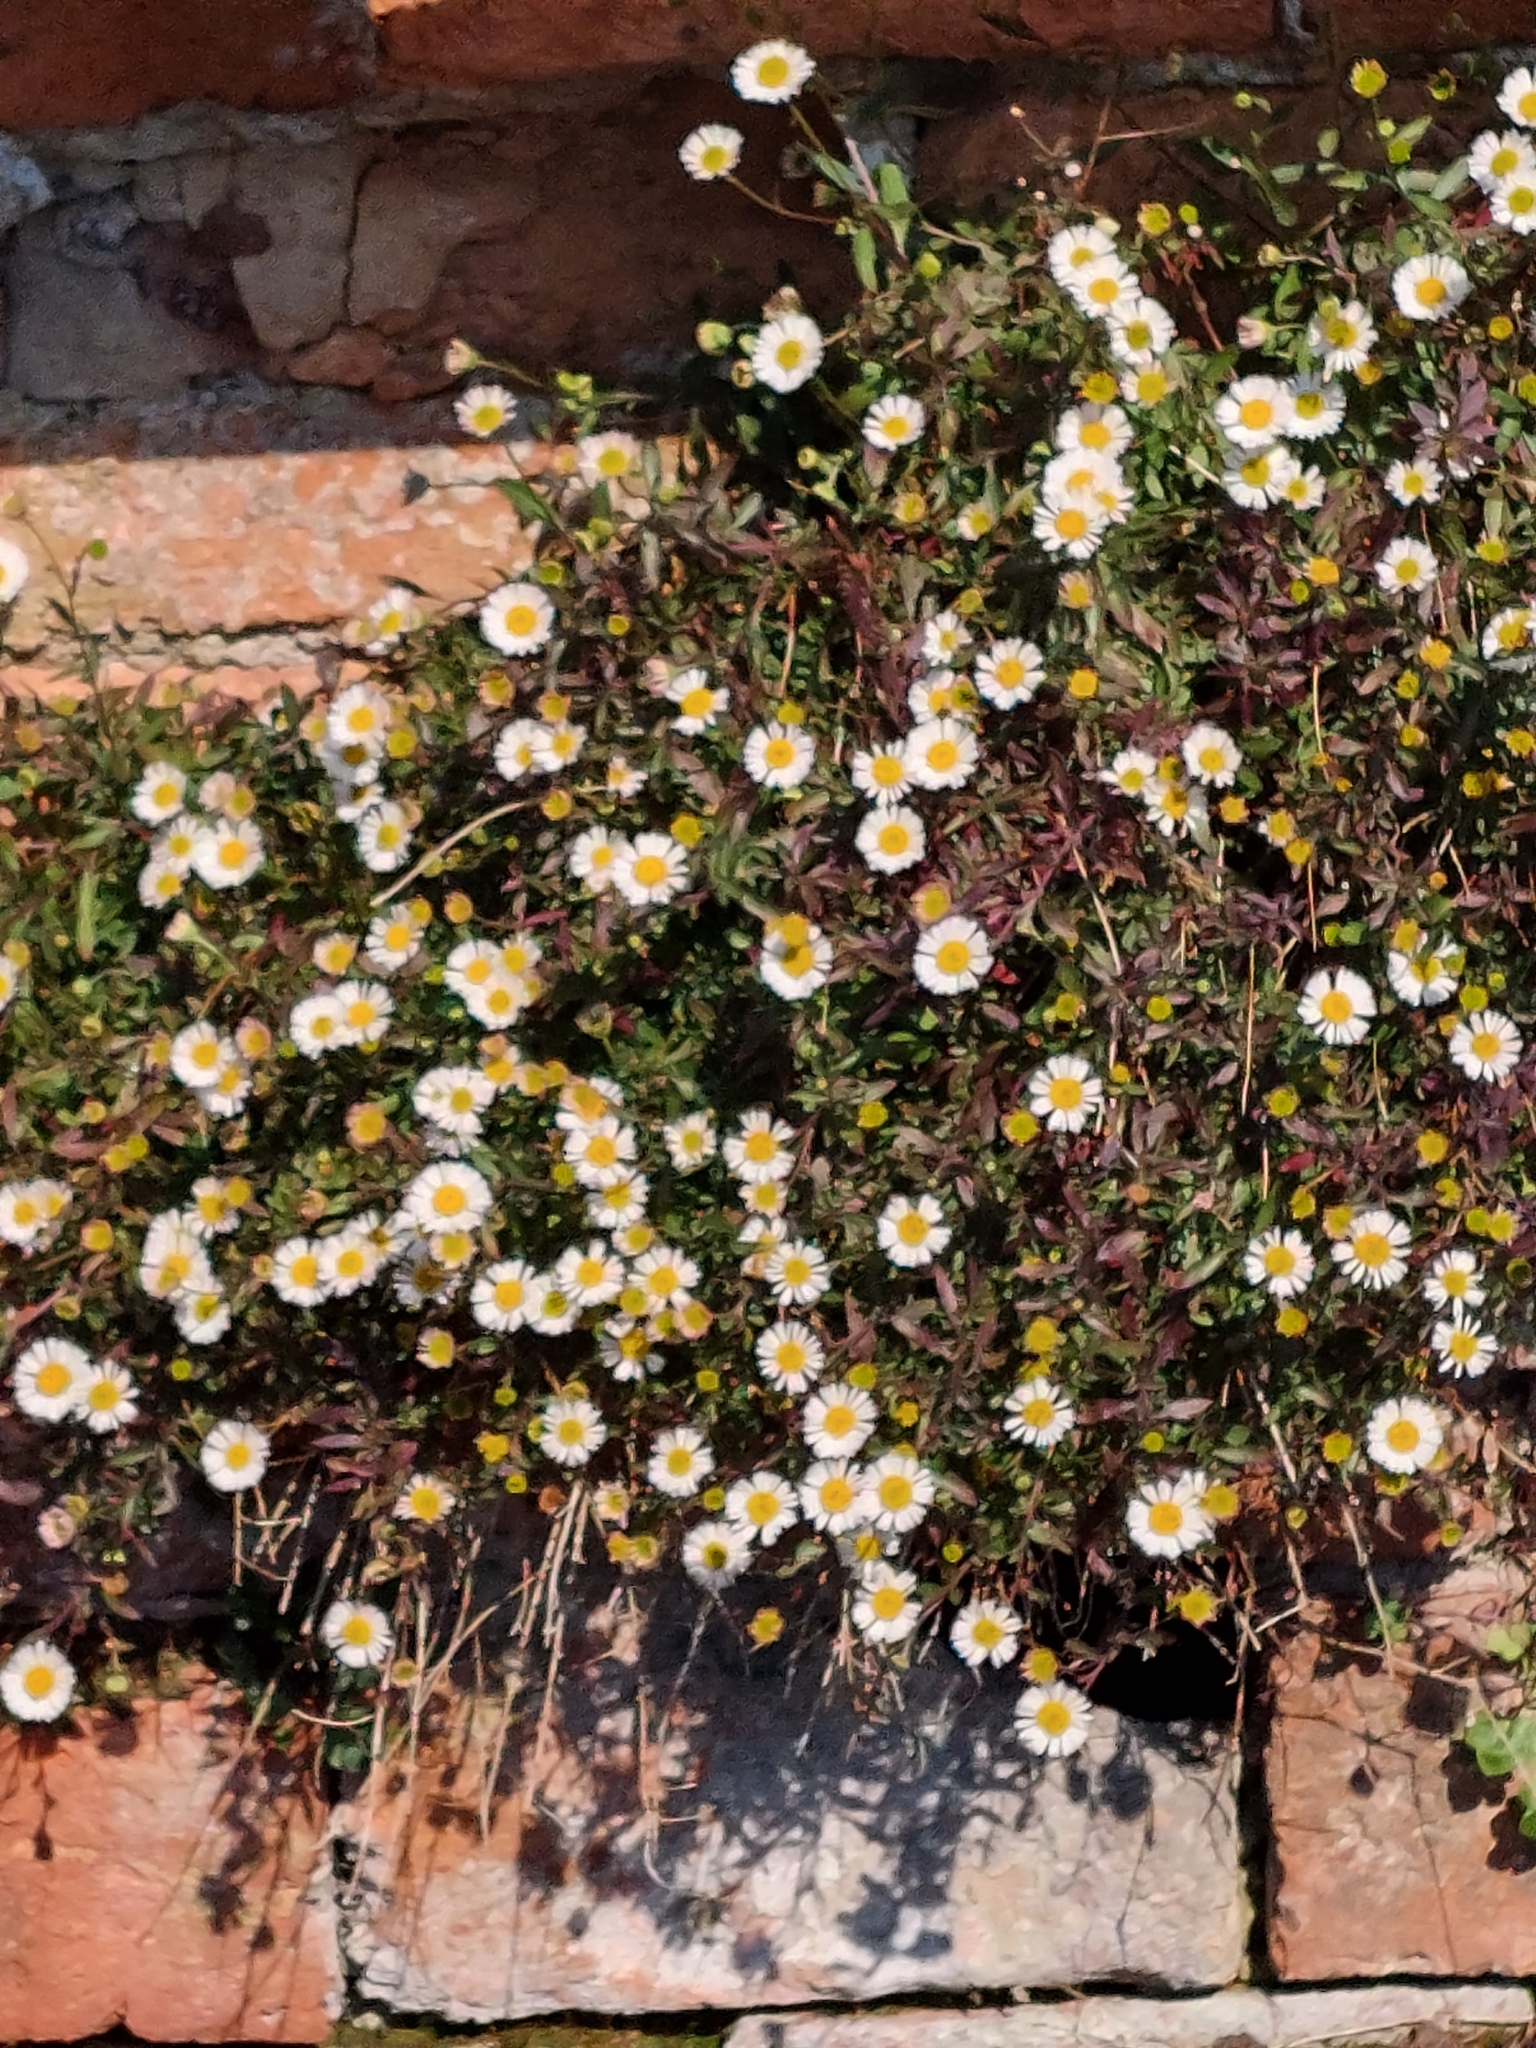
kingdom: Plantae
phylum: Tracheophyta
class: Magnoliopsida
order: Asterales
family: Asteraceae
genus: Erigeron
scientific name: Erigeron karvinskianus
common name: Mexican fleabane
